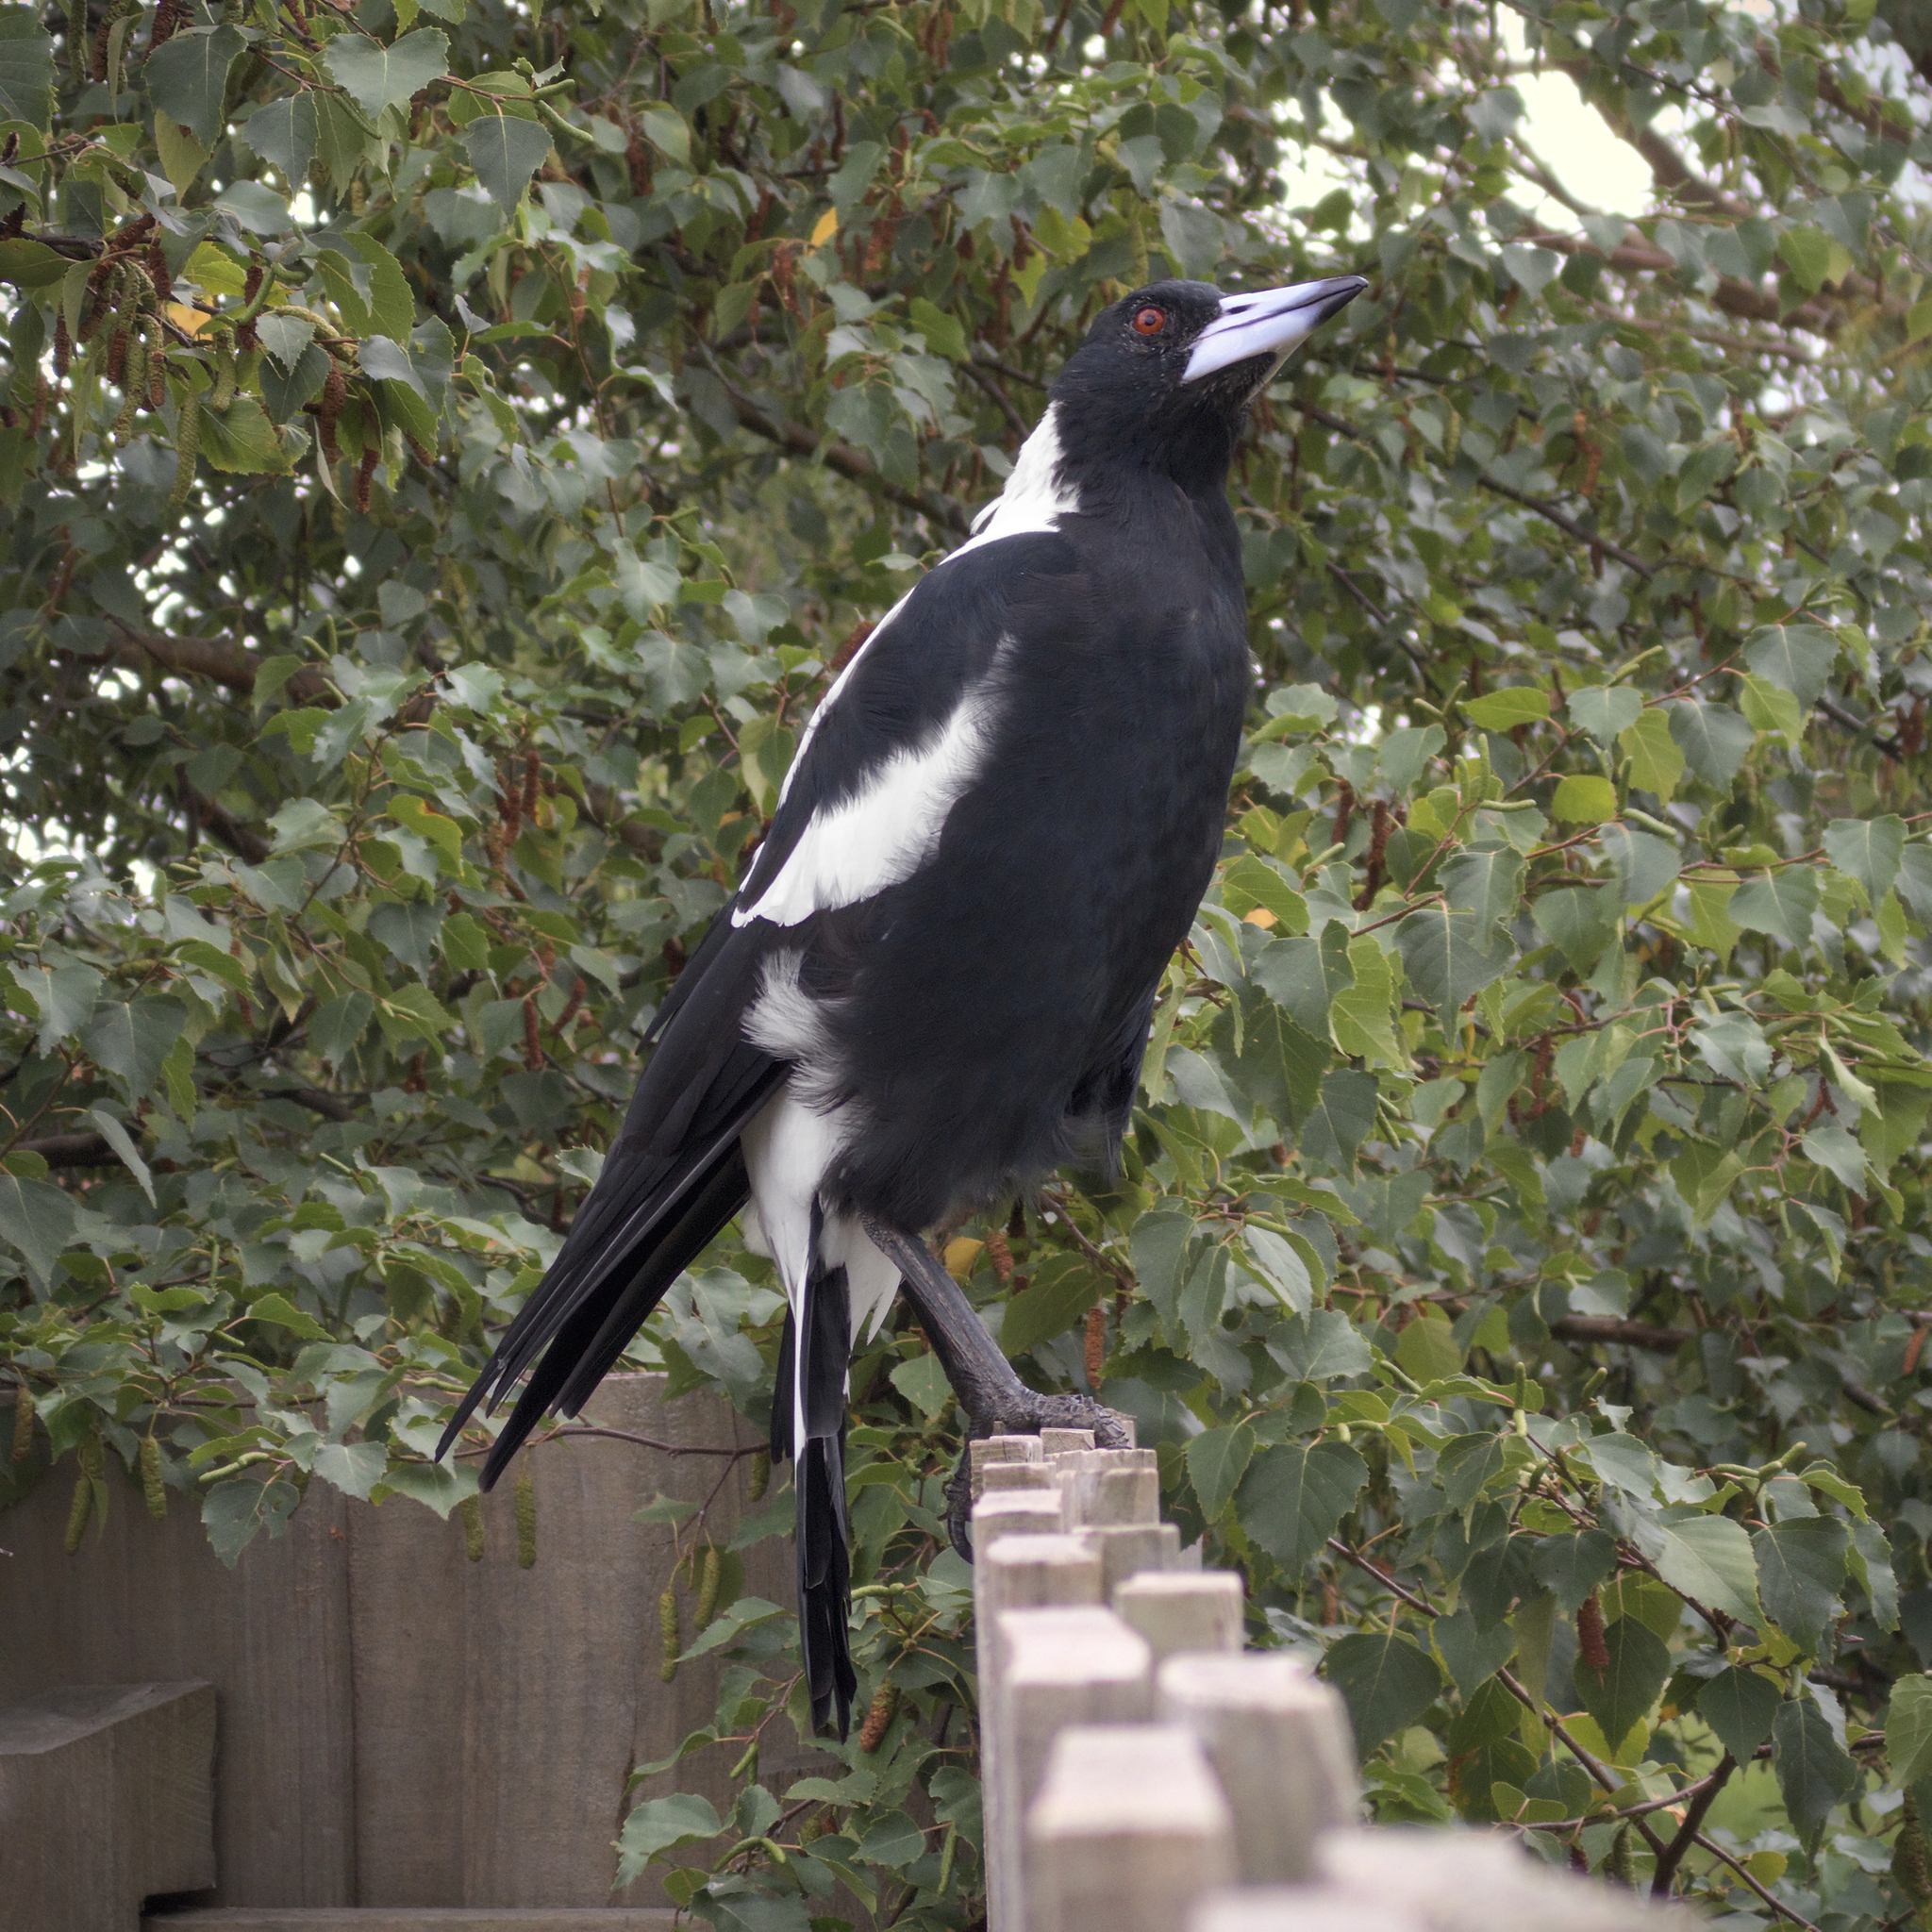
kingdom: Animalia
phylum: Chordata
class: Aves
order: Passeriformes
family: Cracticidae
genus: Gymnorhina
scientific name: Gymnorhina tibicen
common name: Australian magpie
